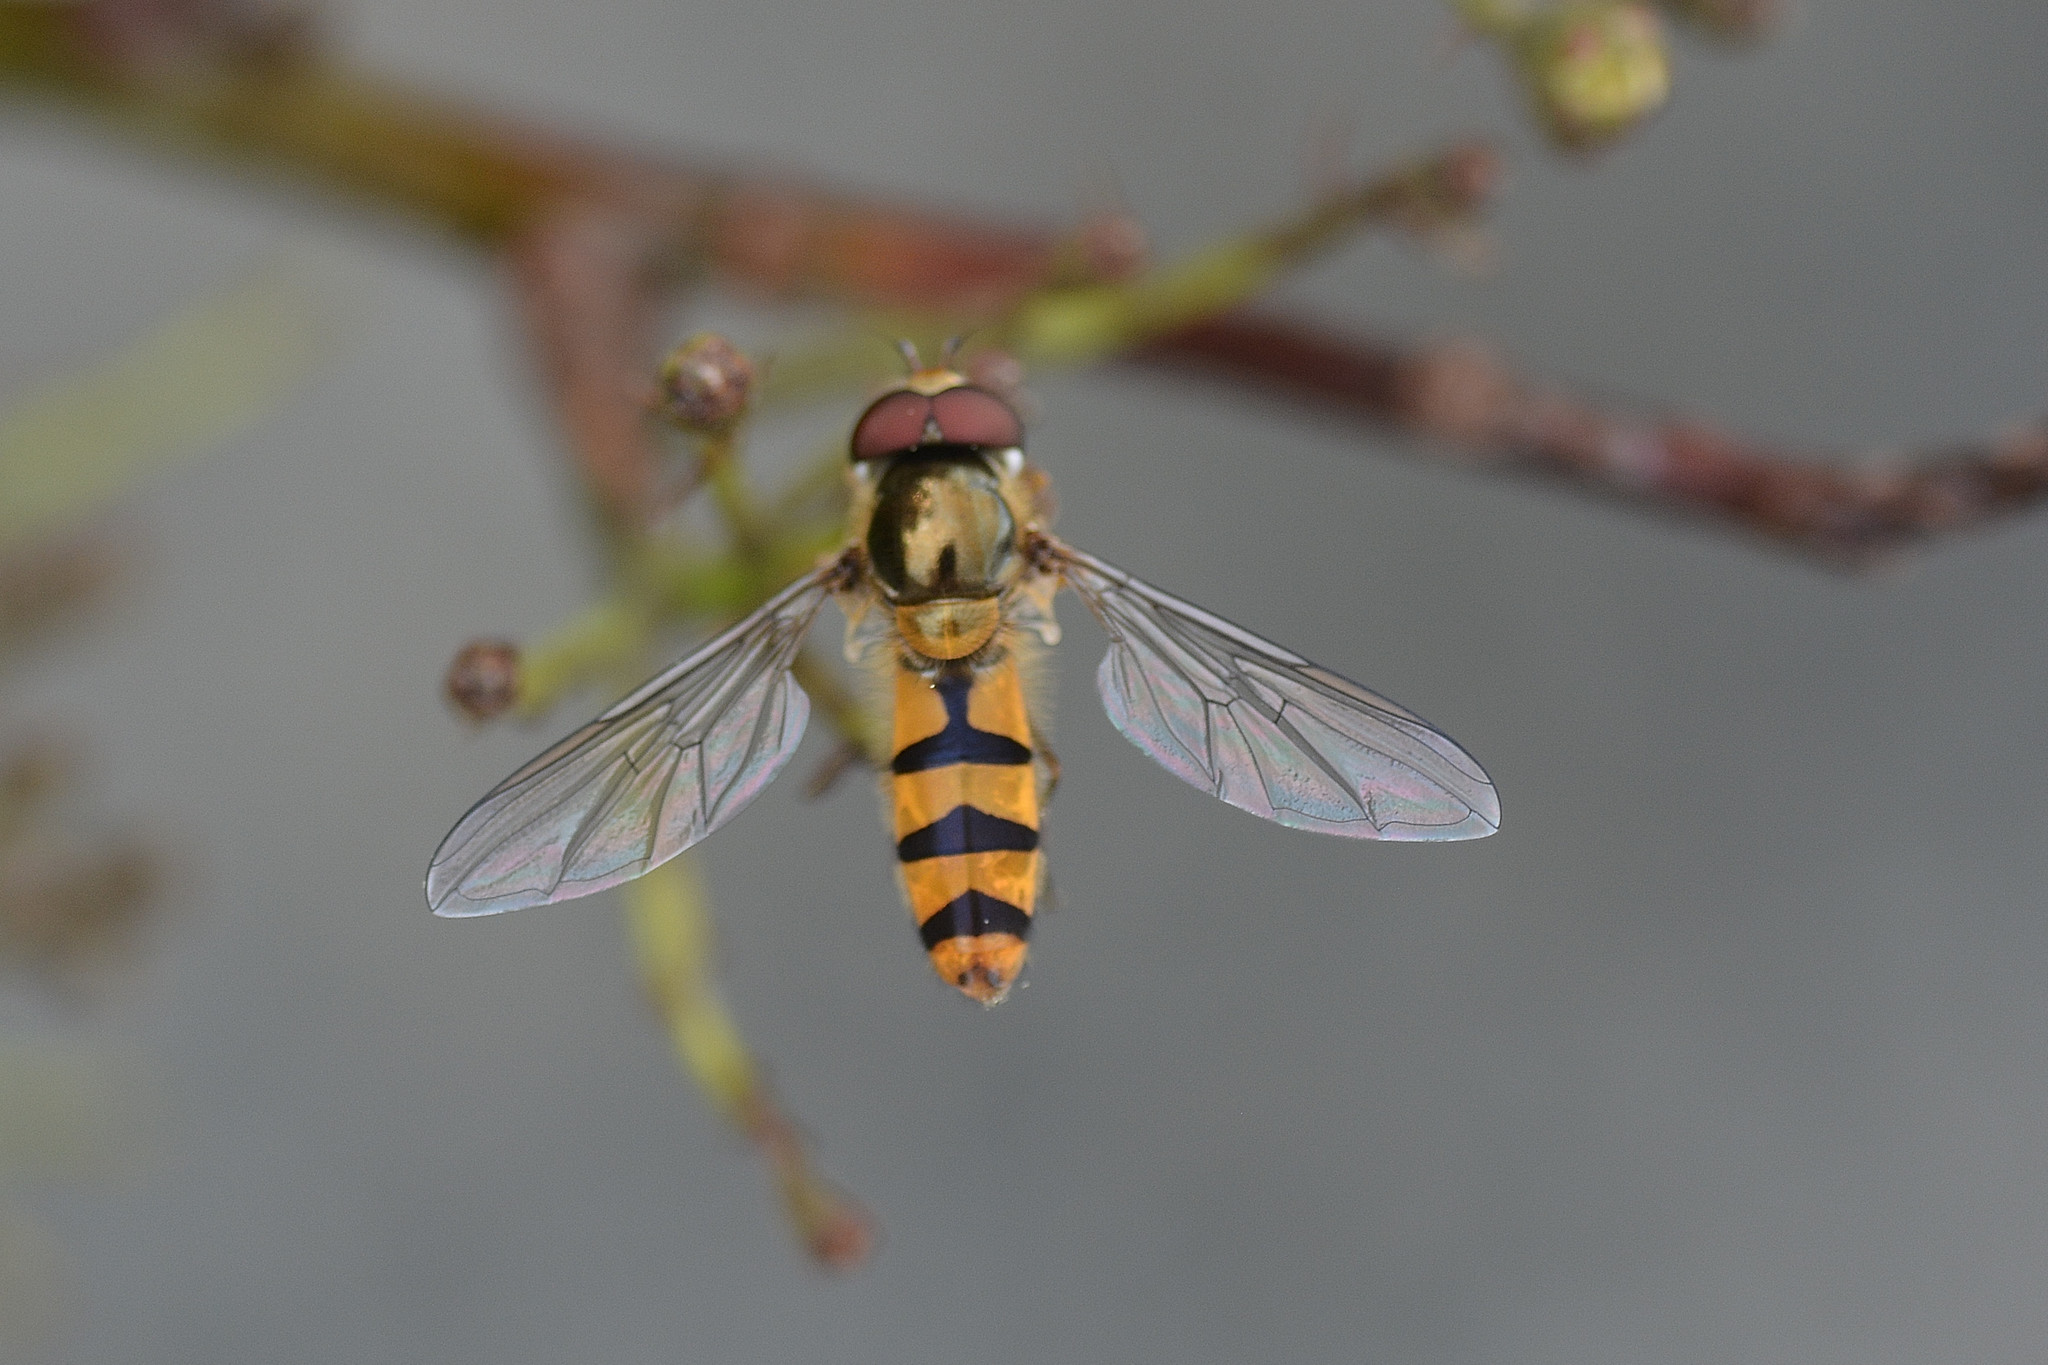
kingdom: Animalia
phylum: Arthropoda
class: Insecta
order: Diptera
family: Syrphidae
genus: Meliscaeva
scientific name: Meliscaeva cinctella
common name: American thintail fly
